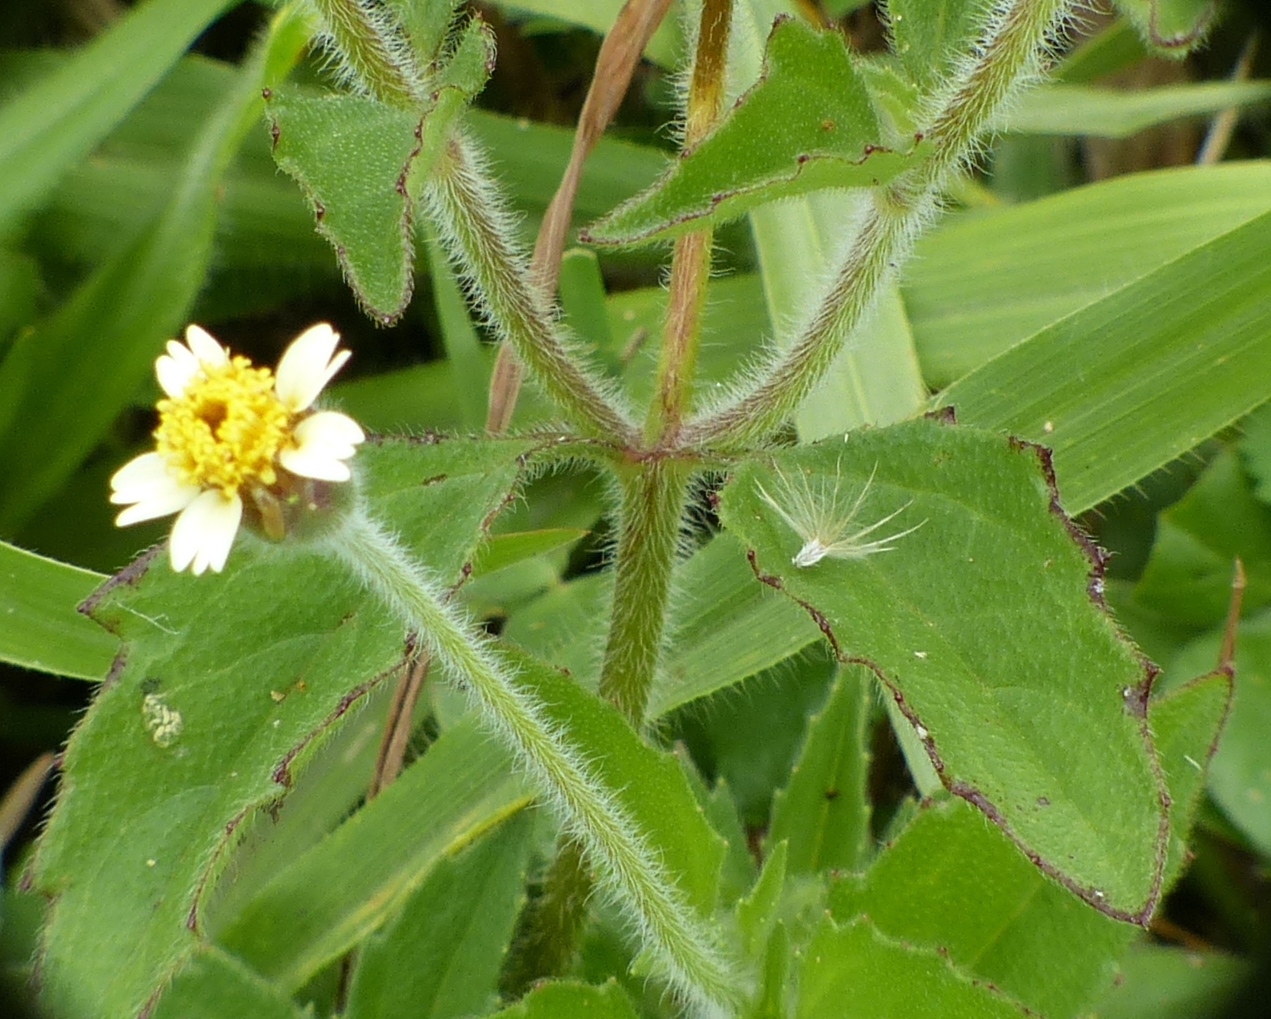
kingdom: Plantae
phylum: Tracheophyta
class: Magnoliopsida
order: Asterales
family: Asteraceae
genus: Tridax
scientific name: Tridax procumbens
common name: Coatbuttons
